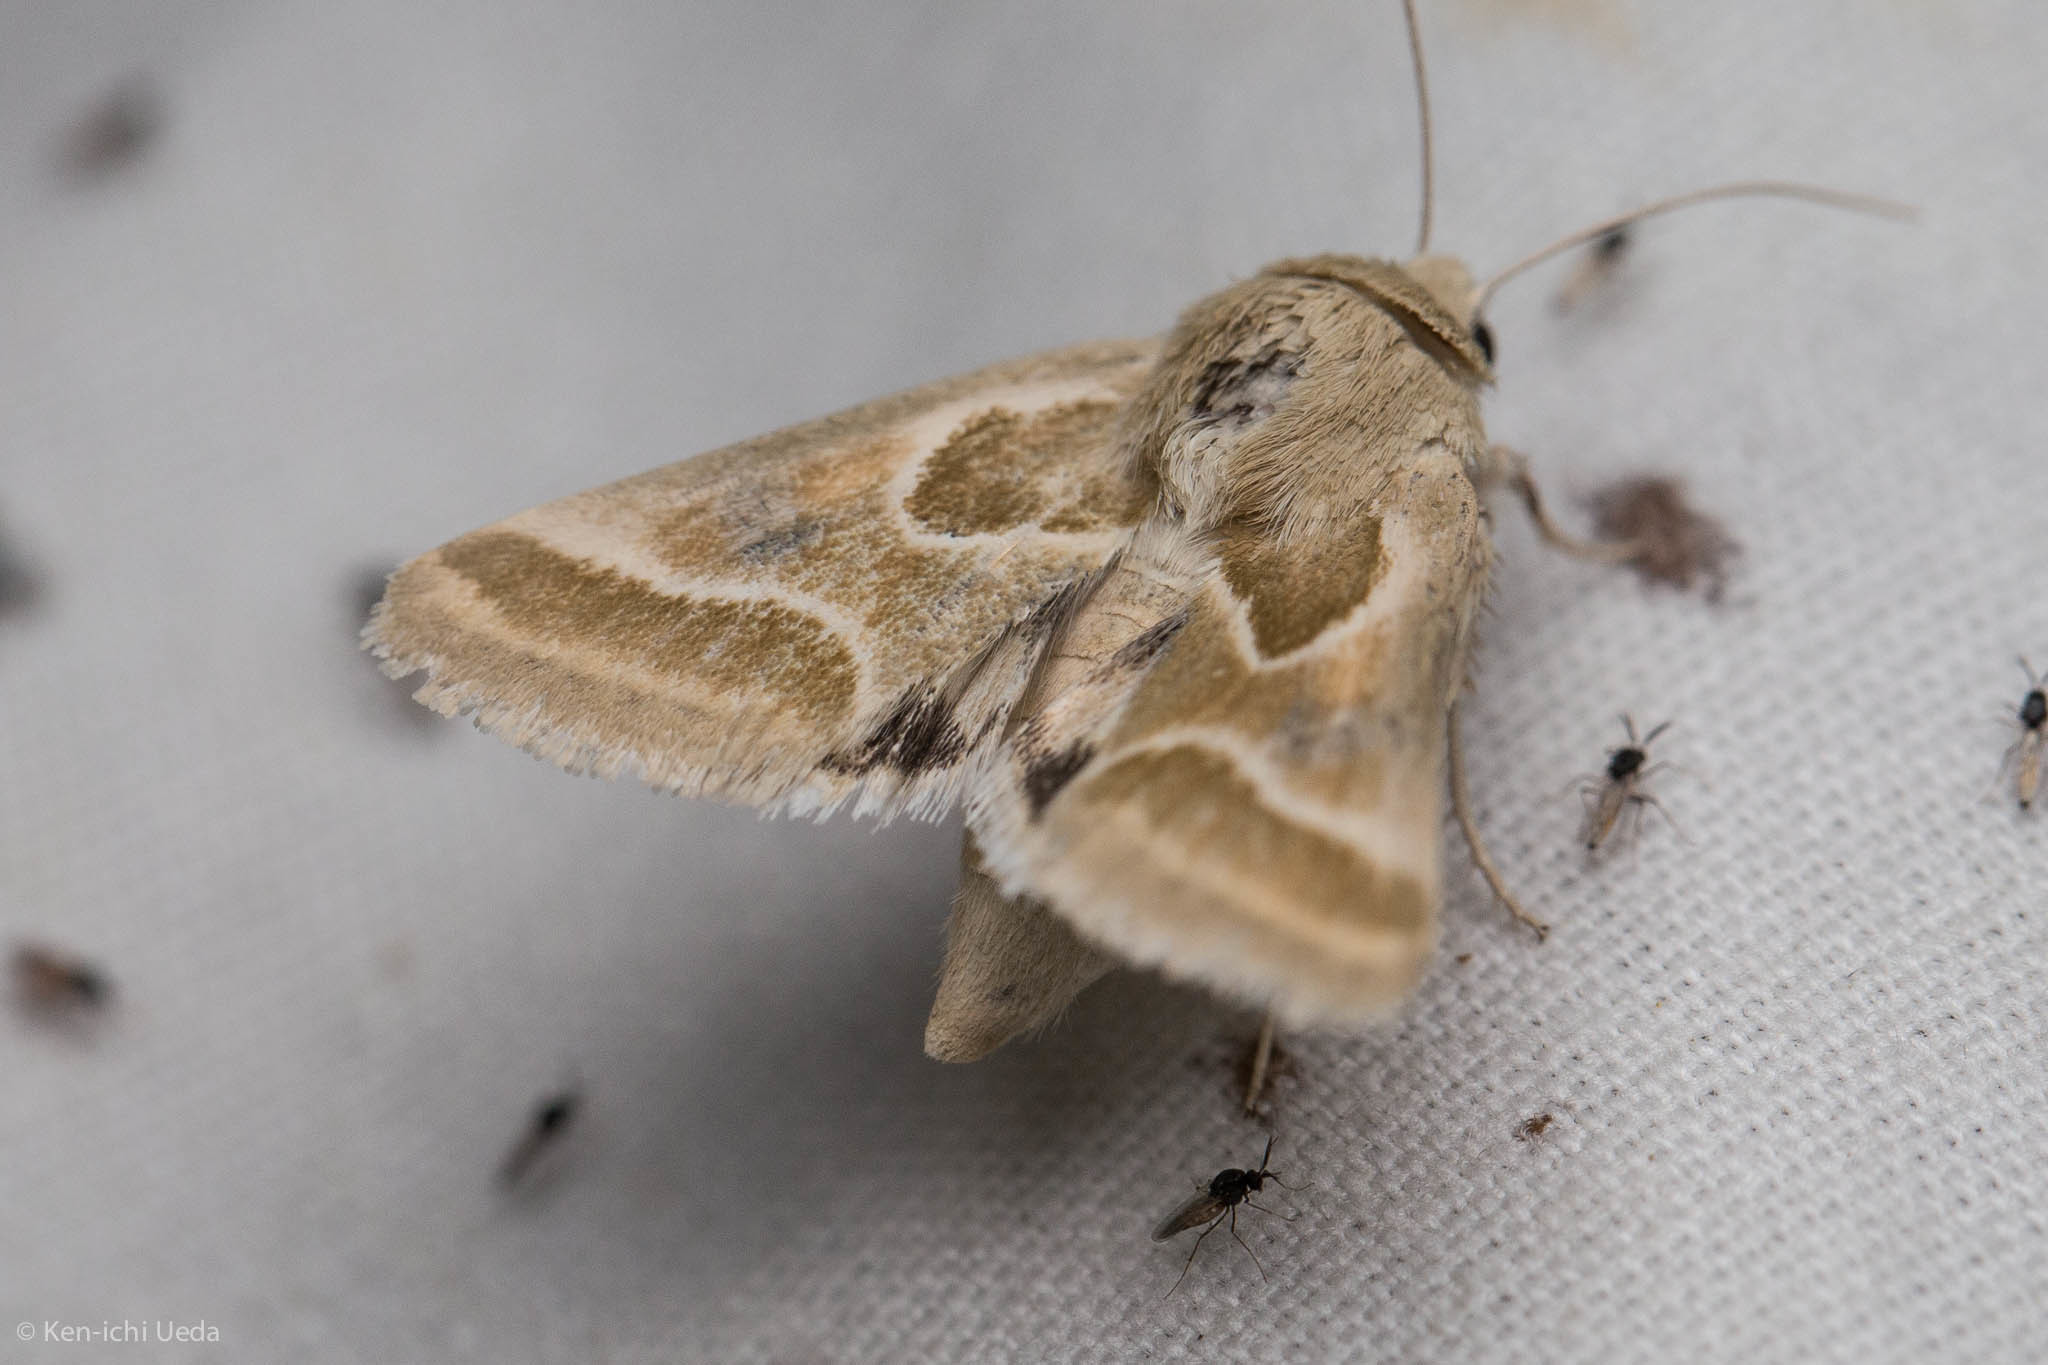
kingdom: Animalia
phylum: Arthropoda
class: Insecta
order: Lepidoptera
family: Noctuidae
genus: Schinia
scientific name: Schinia intrabilis
